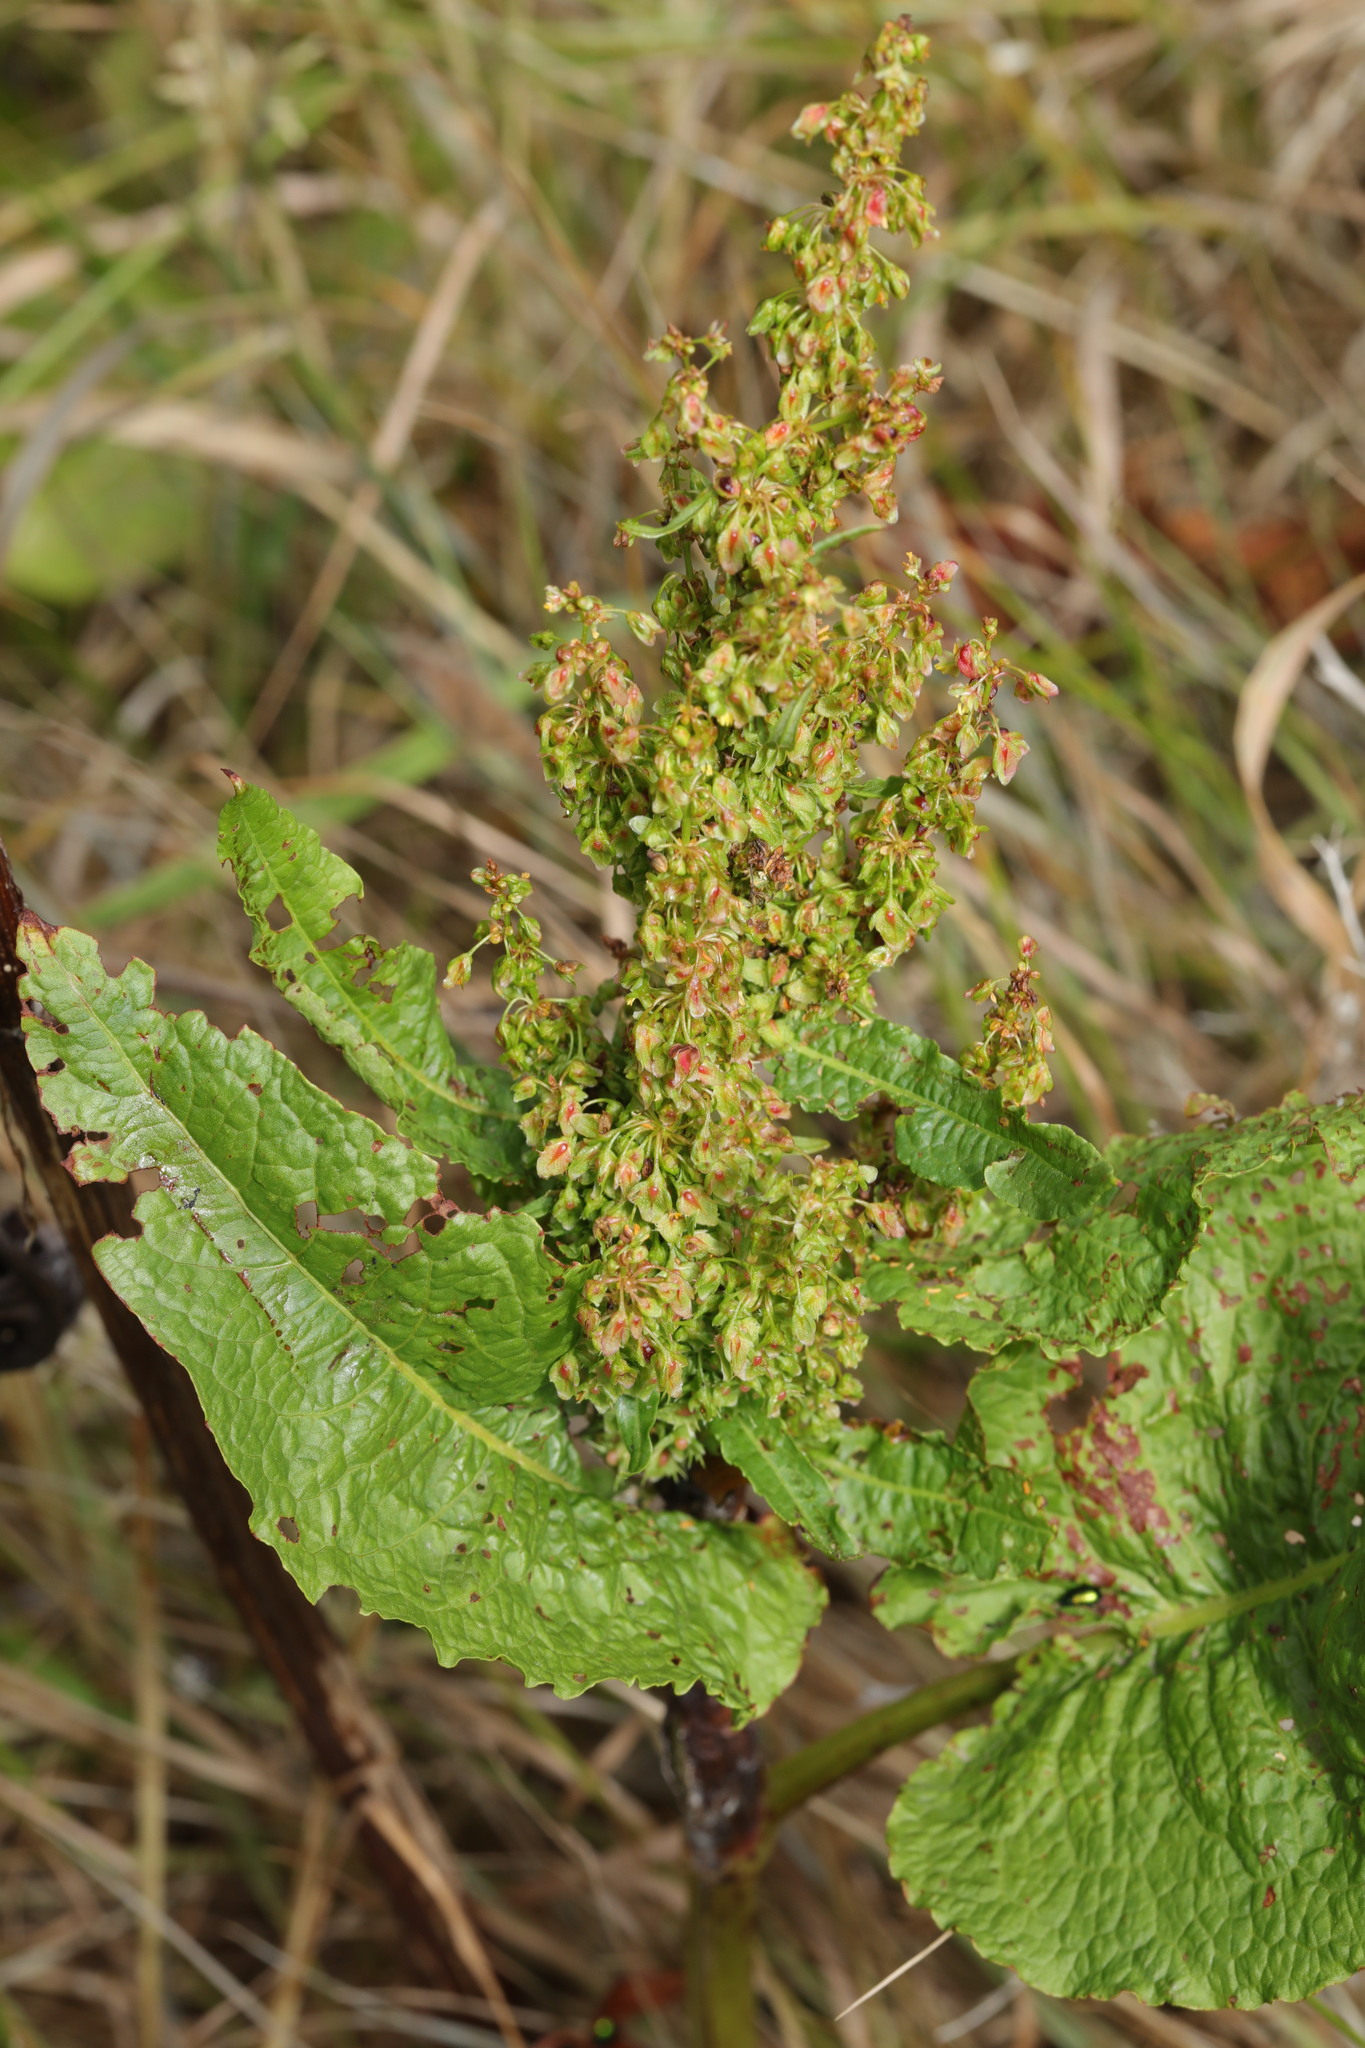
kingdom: Plantae
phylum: Tracheophyta
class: Magnoliopsida
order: Caryophyllales
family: Polygonaceae
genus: Rumex
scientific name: Rumex obtusifolius
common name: Bitter dock
